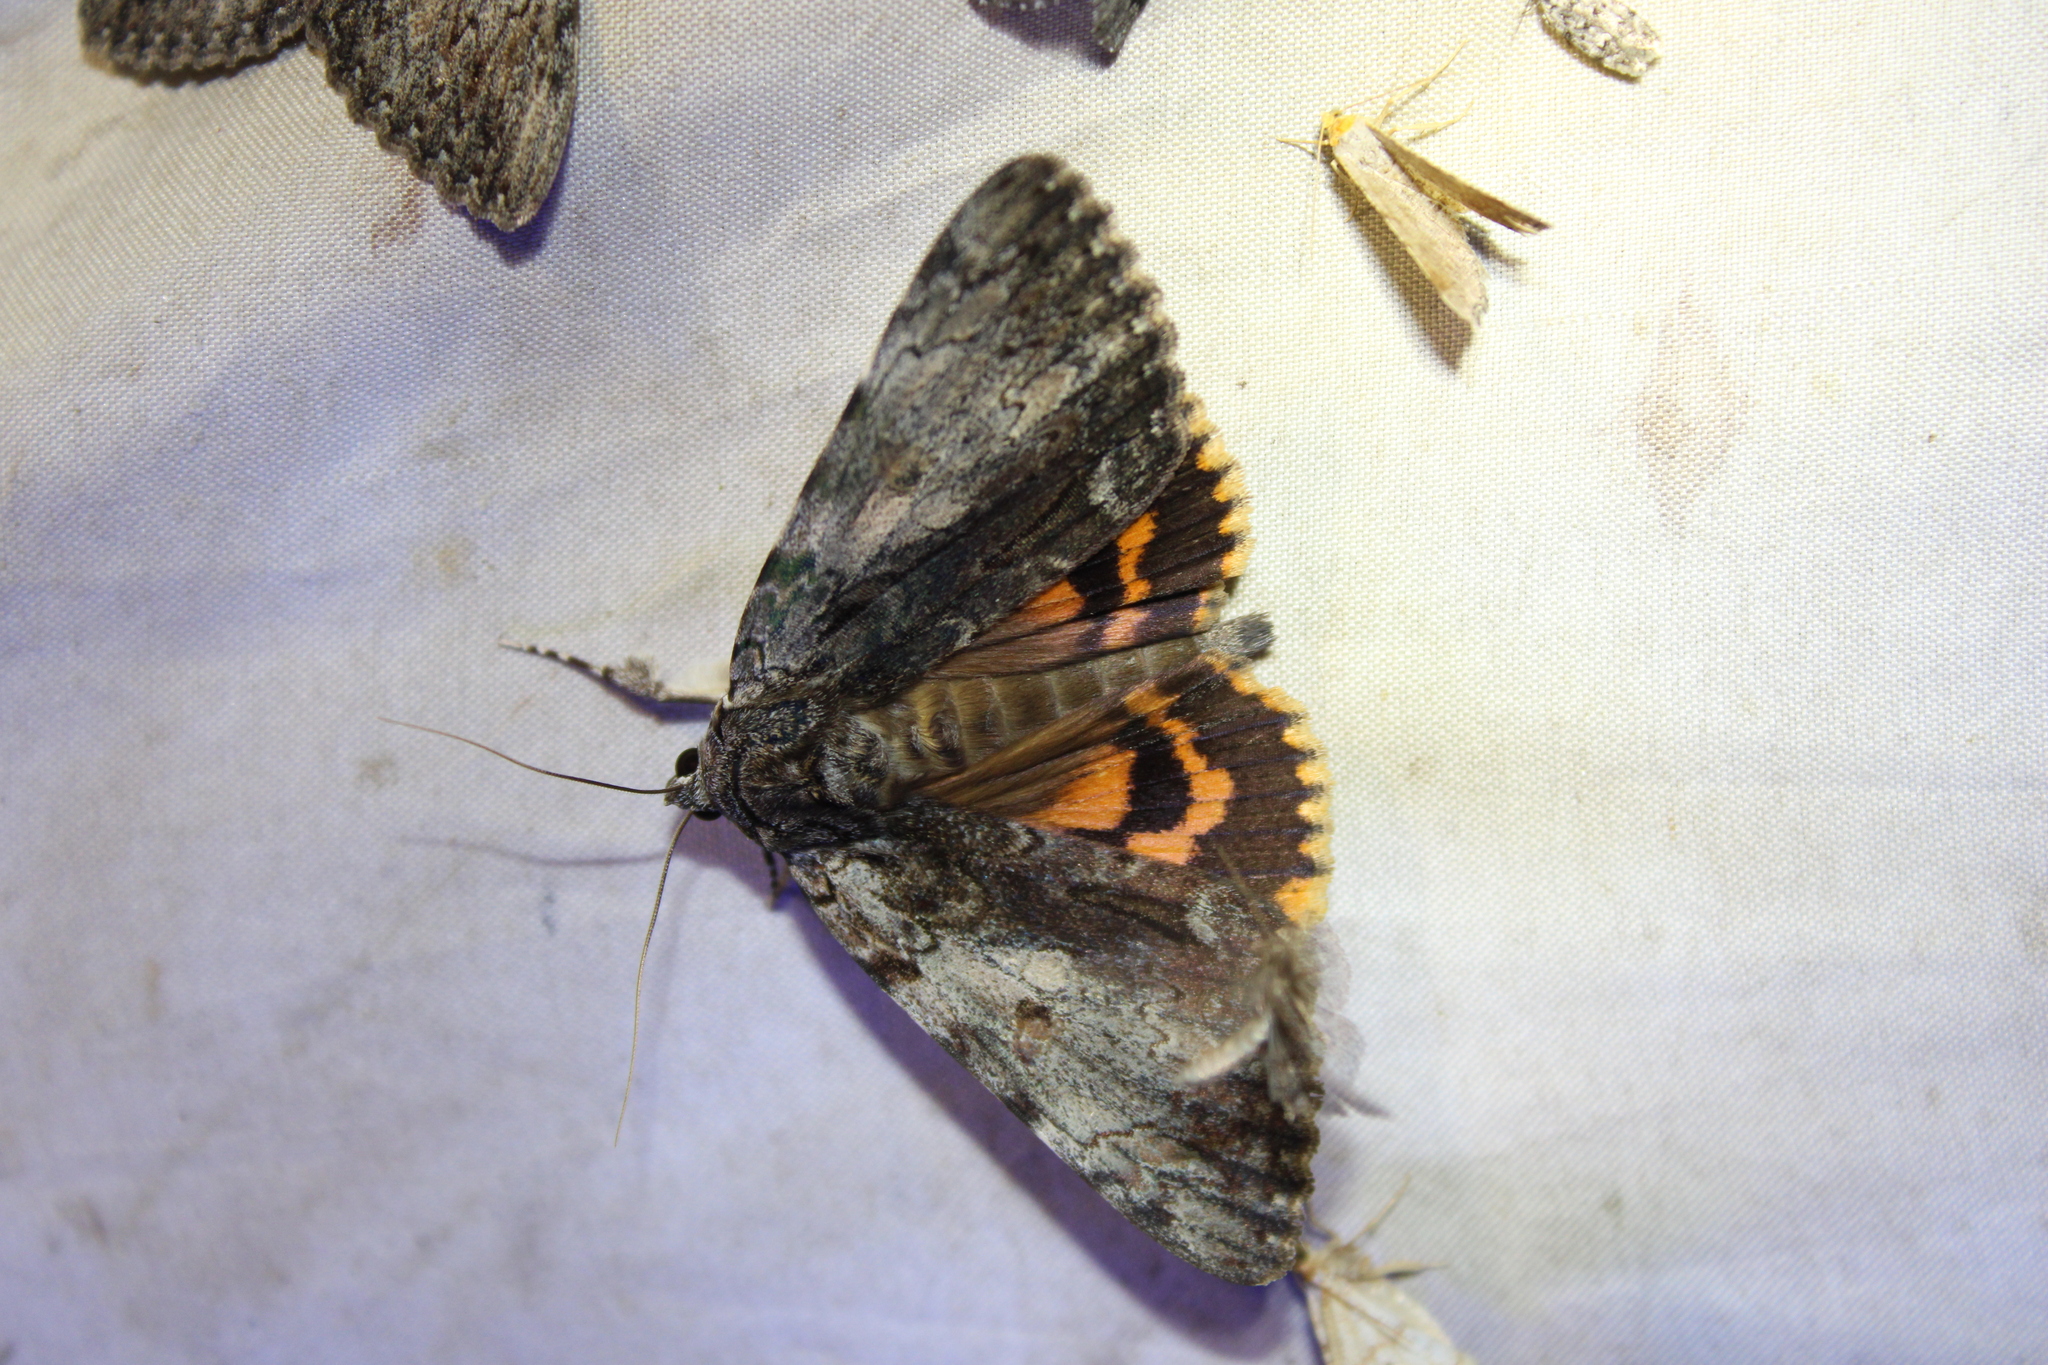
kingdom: Animalia
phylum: Arthropoda
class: Insecta
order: Lepidoptera
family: Erebidae
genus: Catocala
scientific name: Catocala palaeogama
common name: Oldwife underwing
